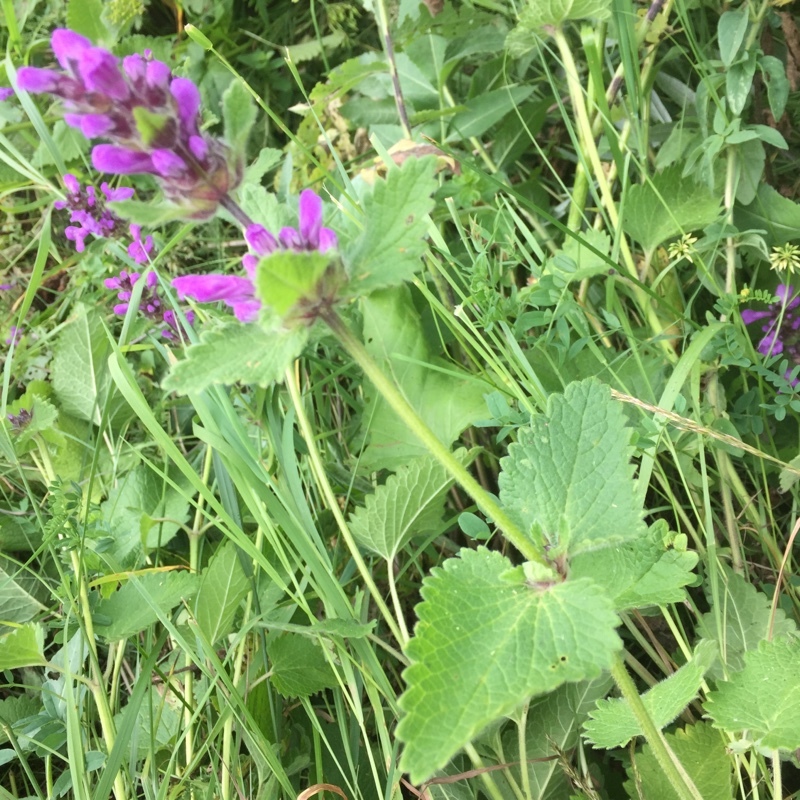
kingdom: Plantae
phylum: Tracheophyta
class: Magnoliopsida
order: Lamiales
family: Lamiaceae
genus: Betonica
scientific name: Betonica macrantha
